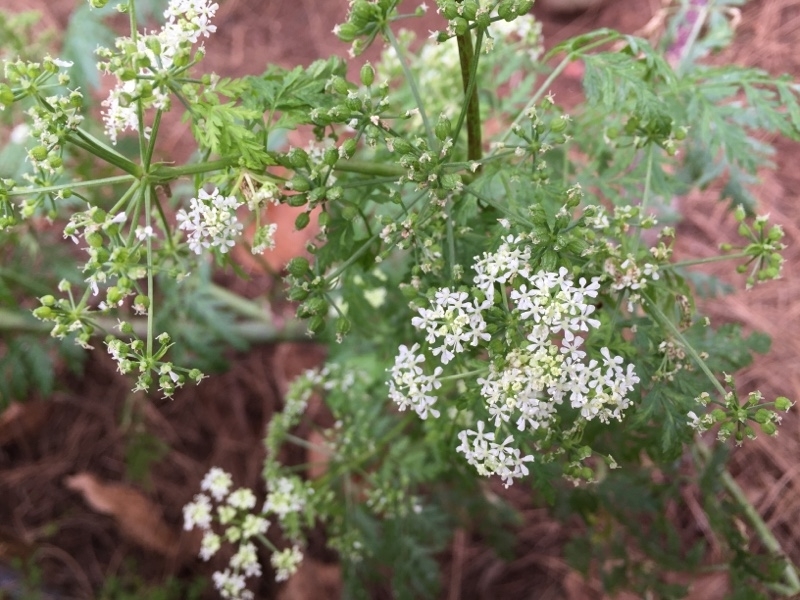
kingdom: Plantae
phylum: Tracheophyta
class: Magnoliopsida
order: Apiales
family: Apiaceae
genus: Conium
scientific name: Conium maculatum
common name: Hemlock
